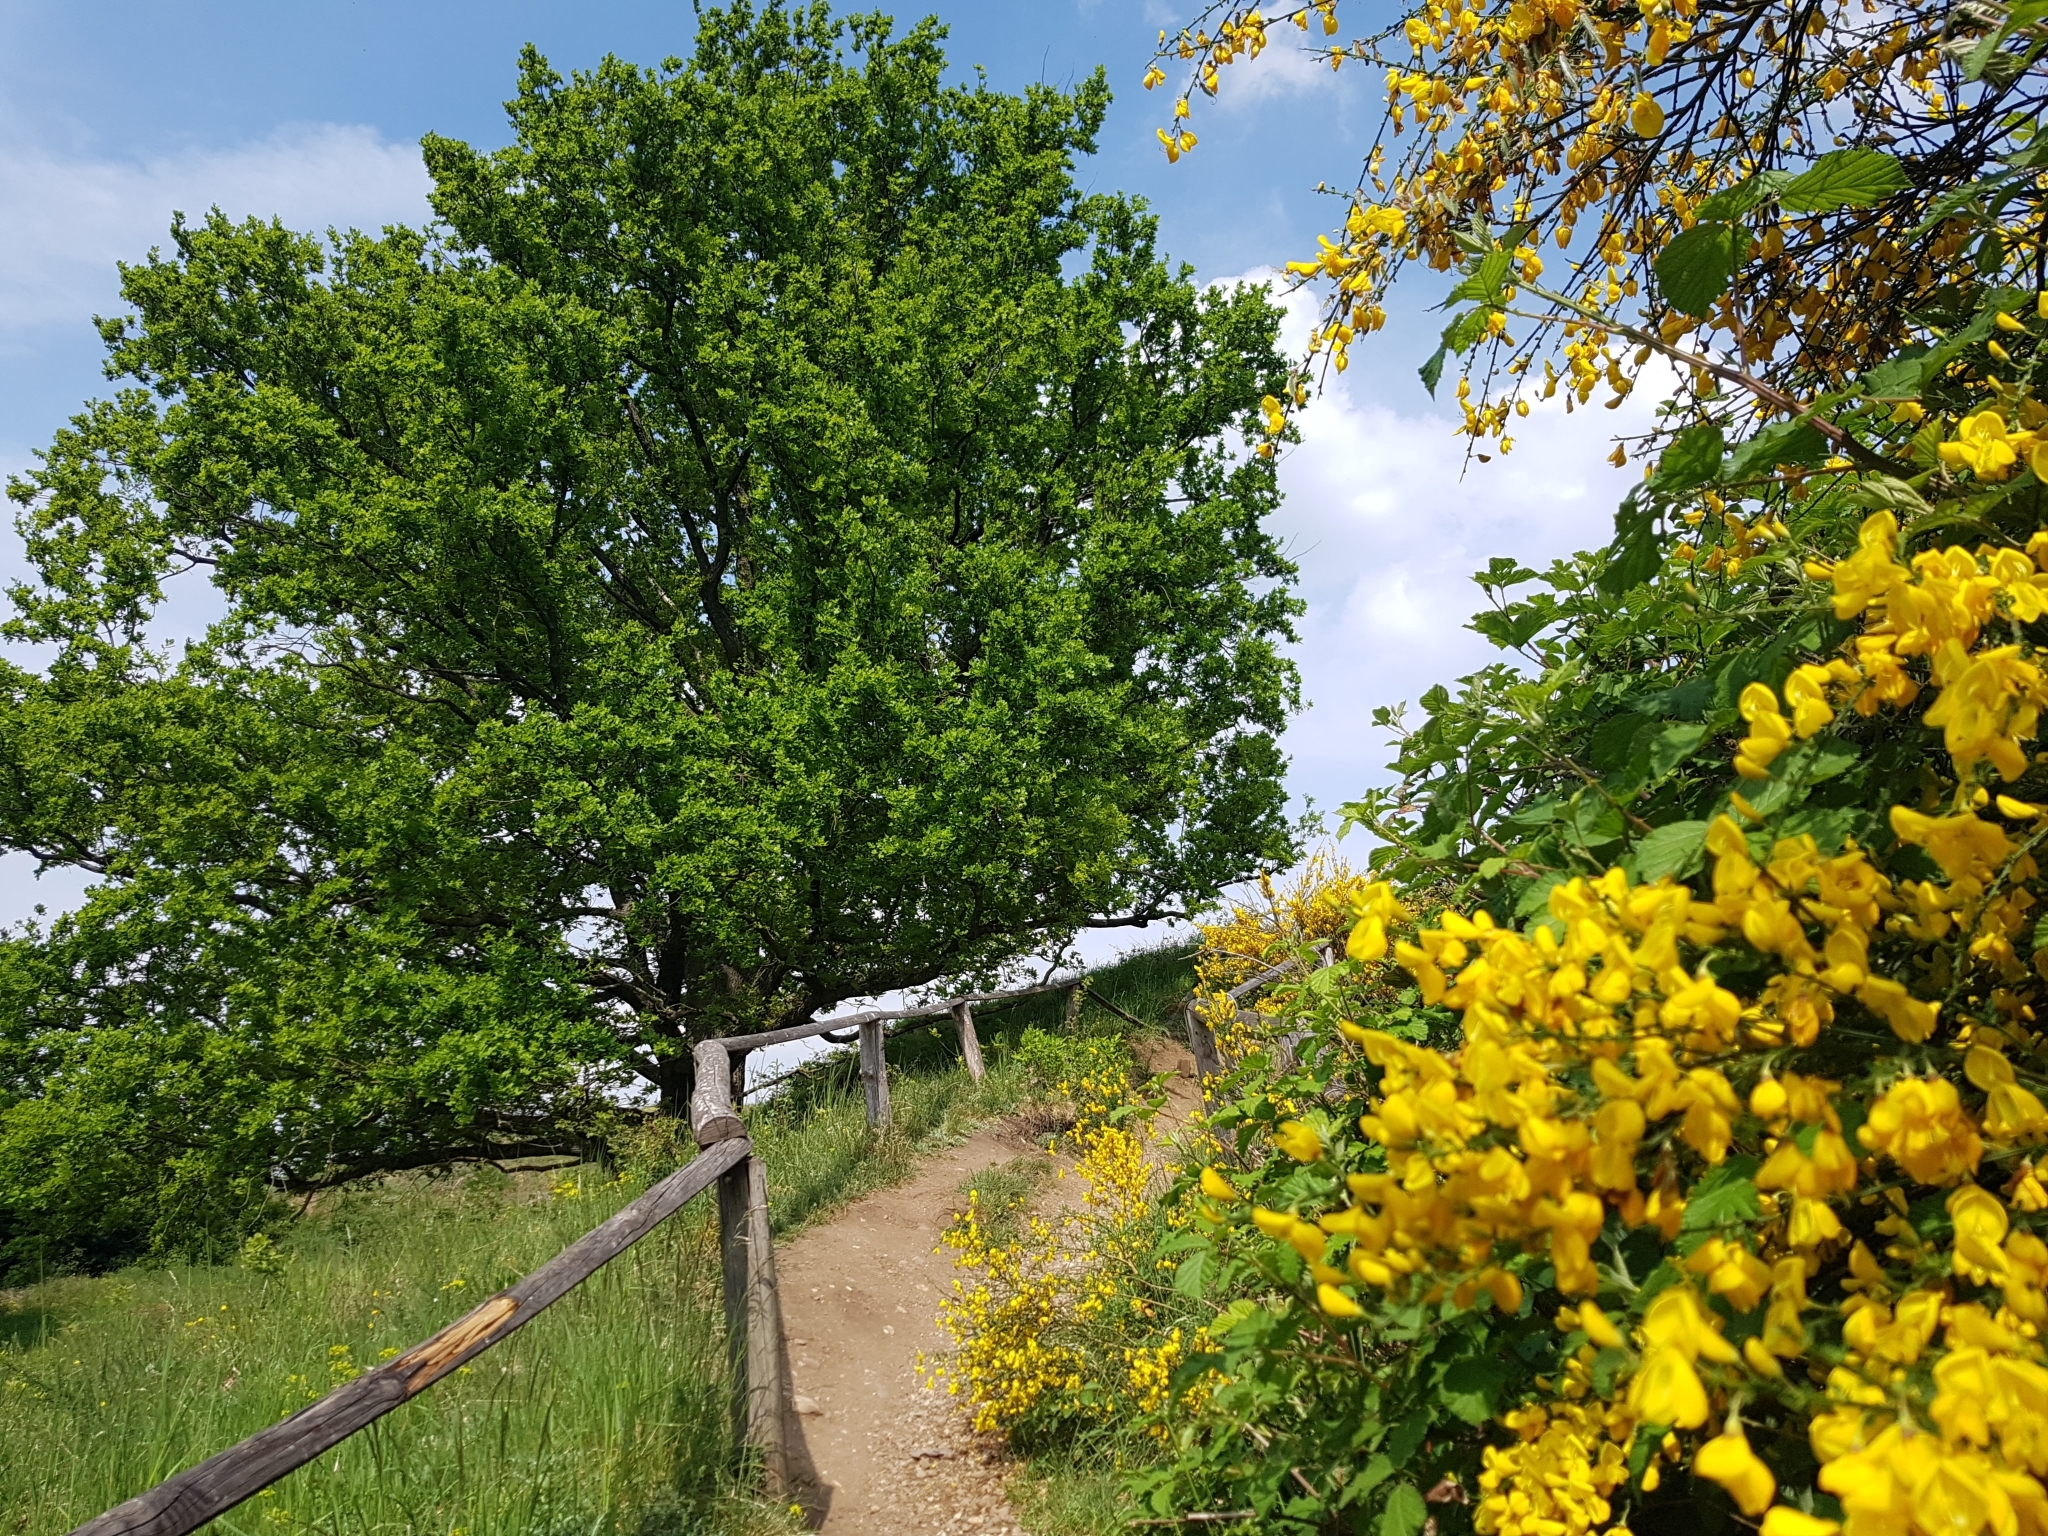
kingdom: Plantae
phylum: Tracheophyta
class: Magnoliopsida
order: Fabales
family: Fabaceae
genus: Cytisus
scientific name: Cytisus scoparius
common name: Scotch broom
